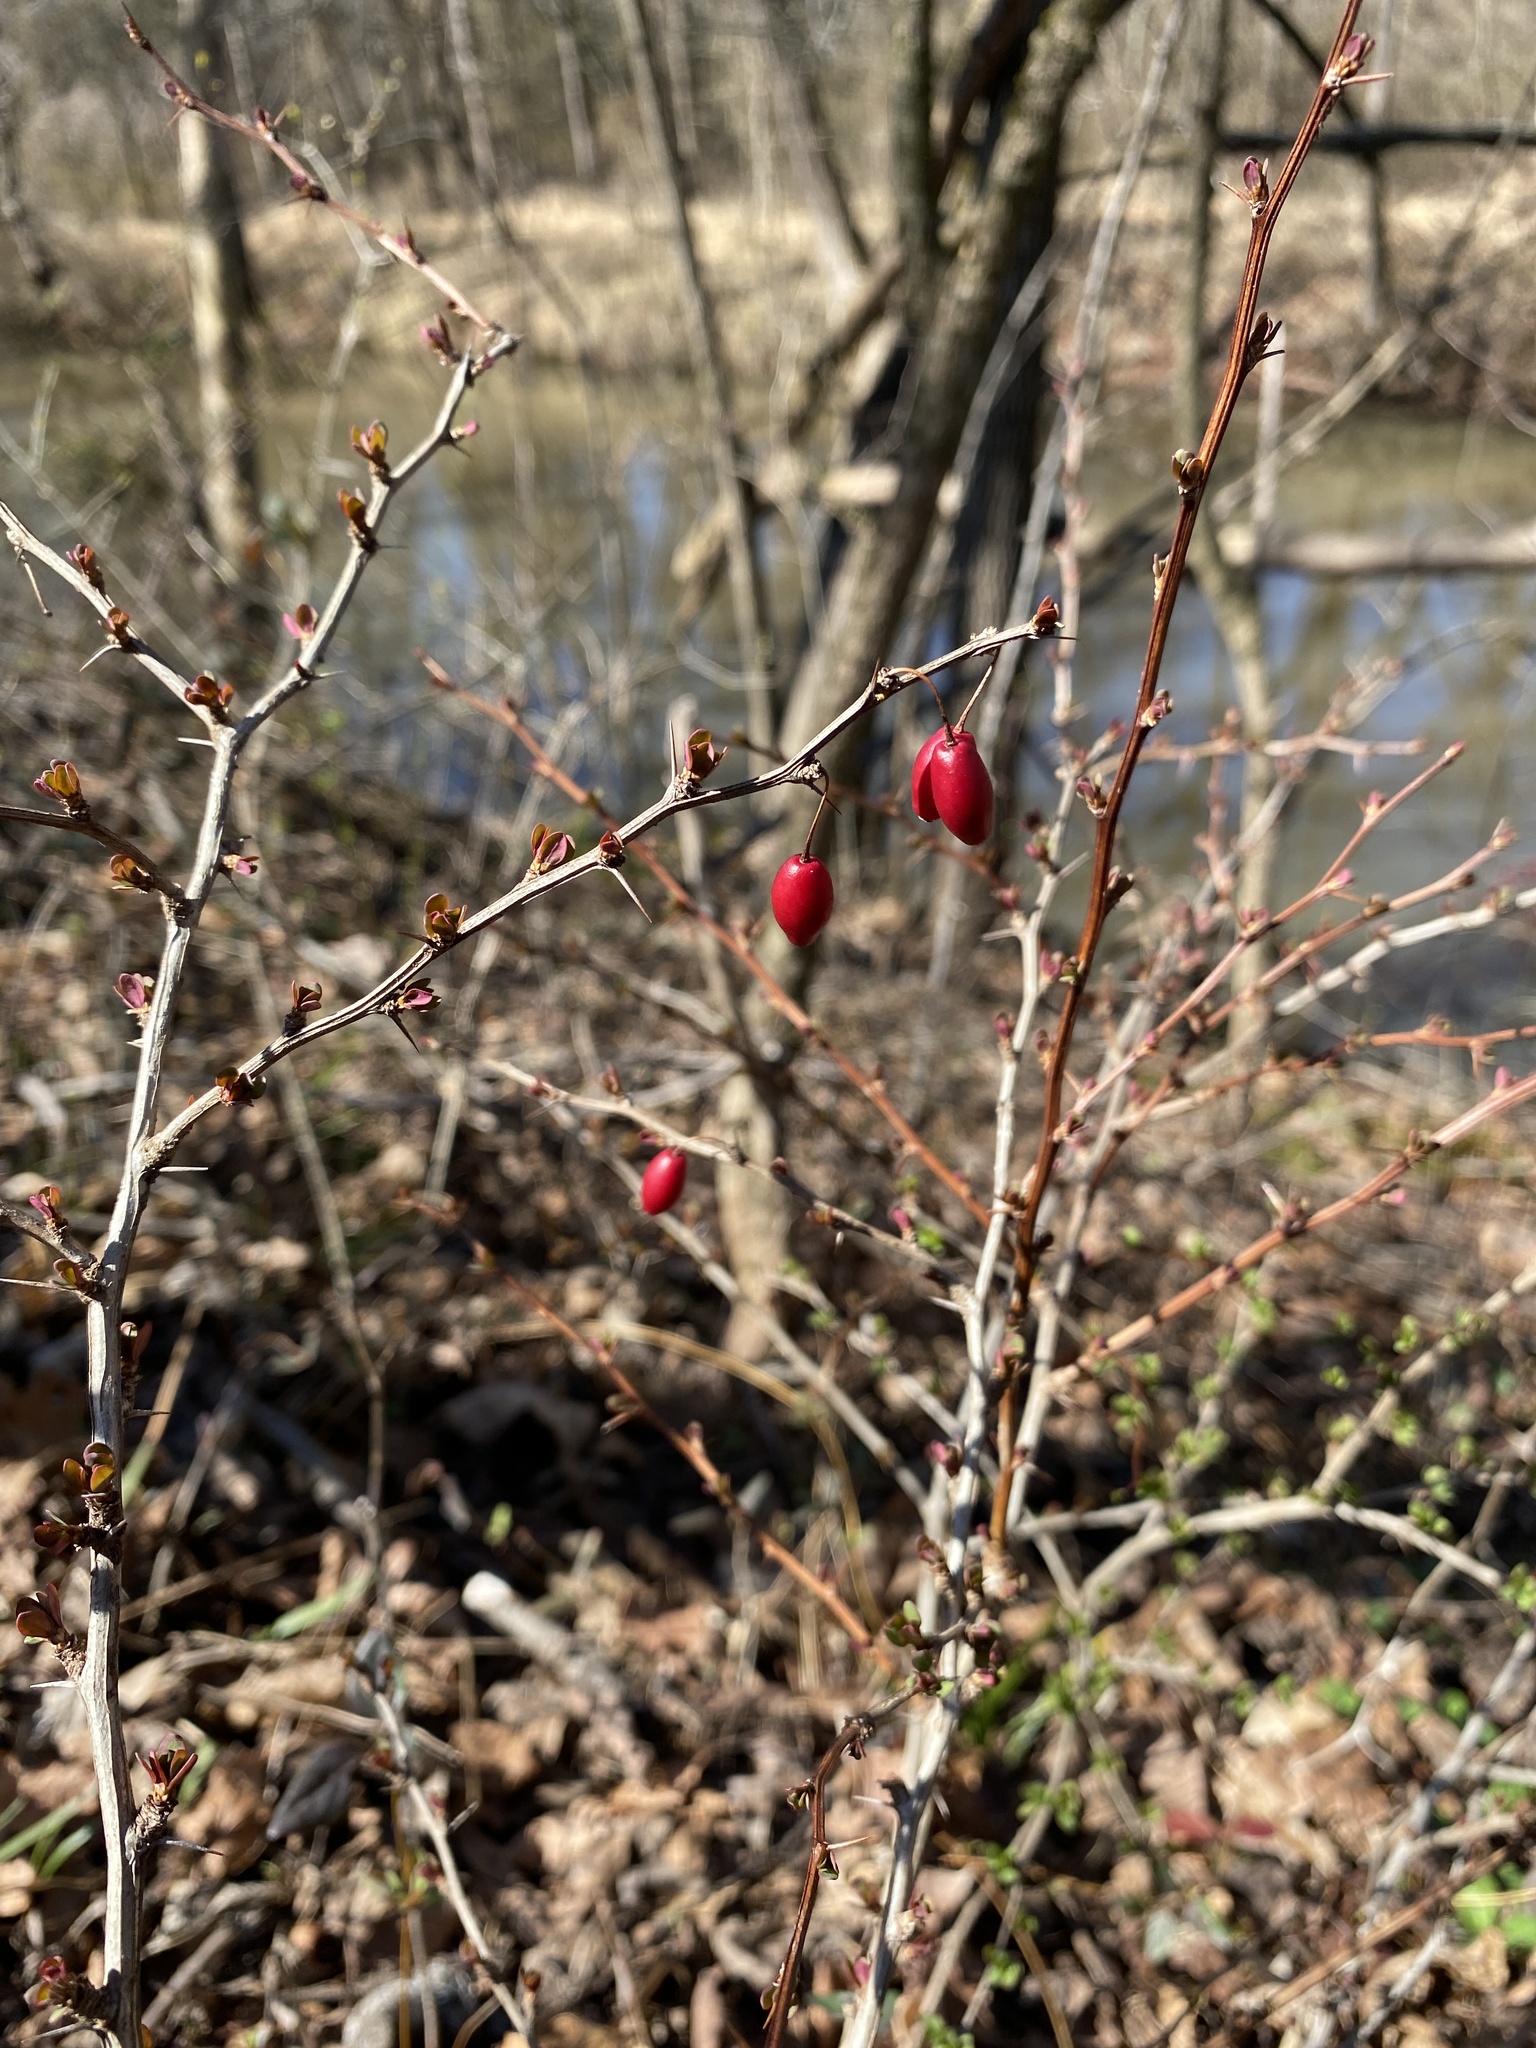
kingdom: Plantae
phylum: Tracheophyta
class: Magnoliopsida
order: Ranunculales
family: Berberidaceae
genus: Berberis
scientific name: Berberis thunbergii
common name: Japanese barberry
